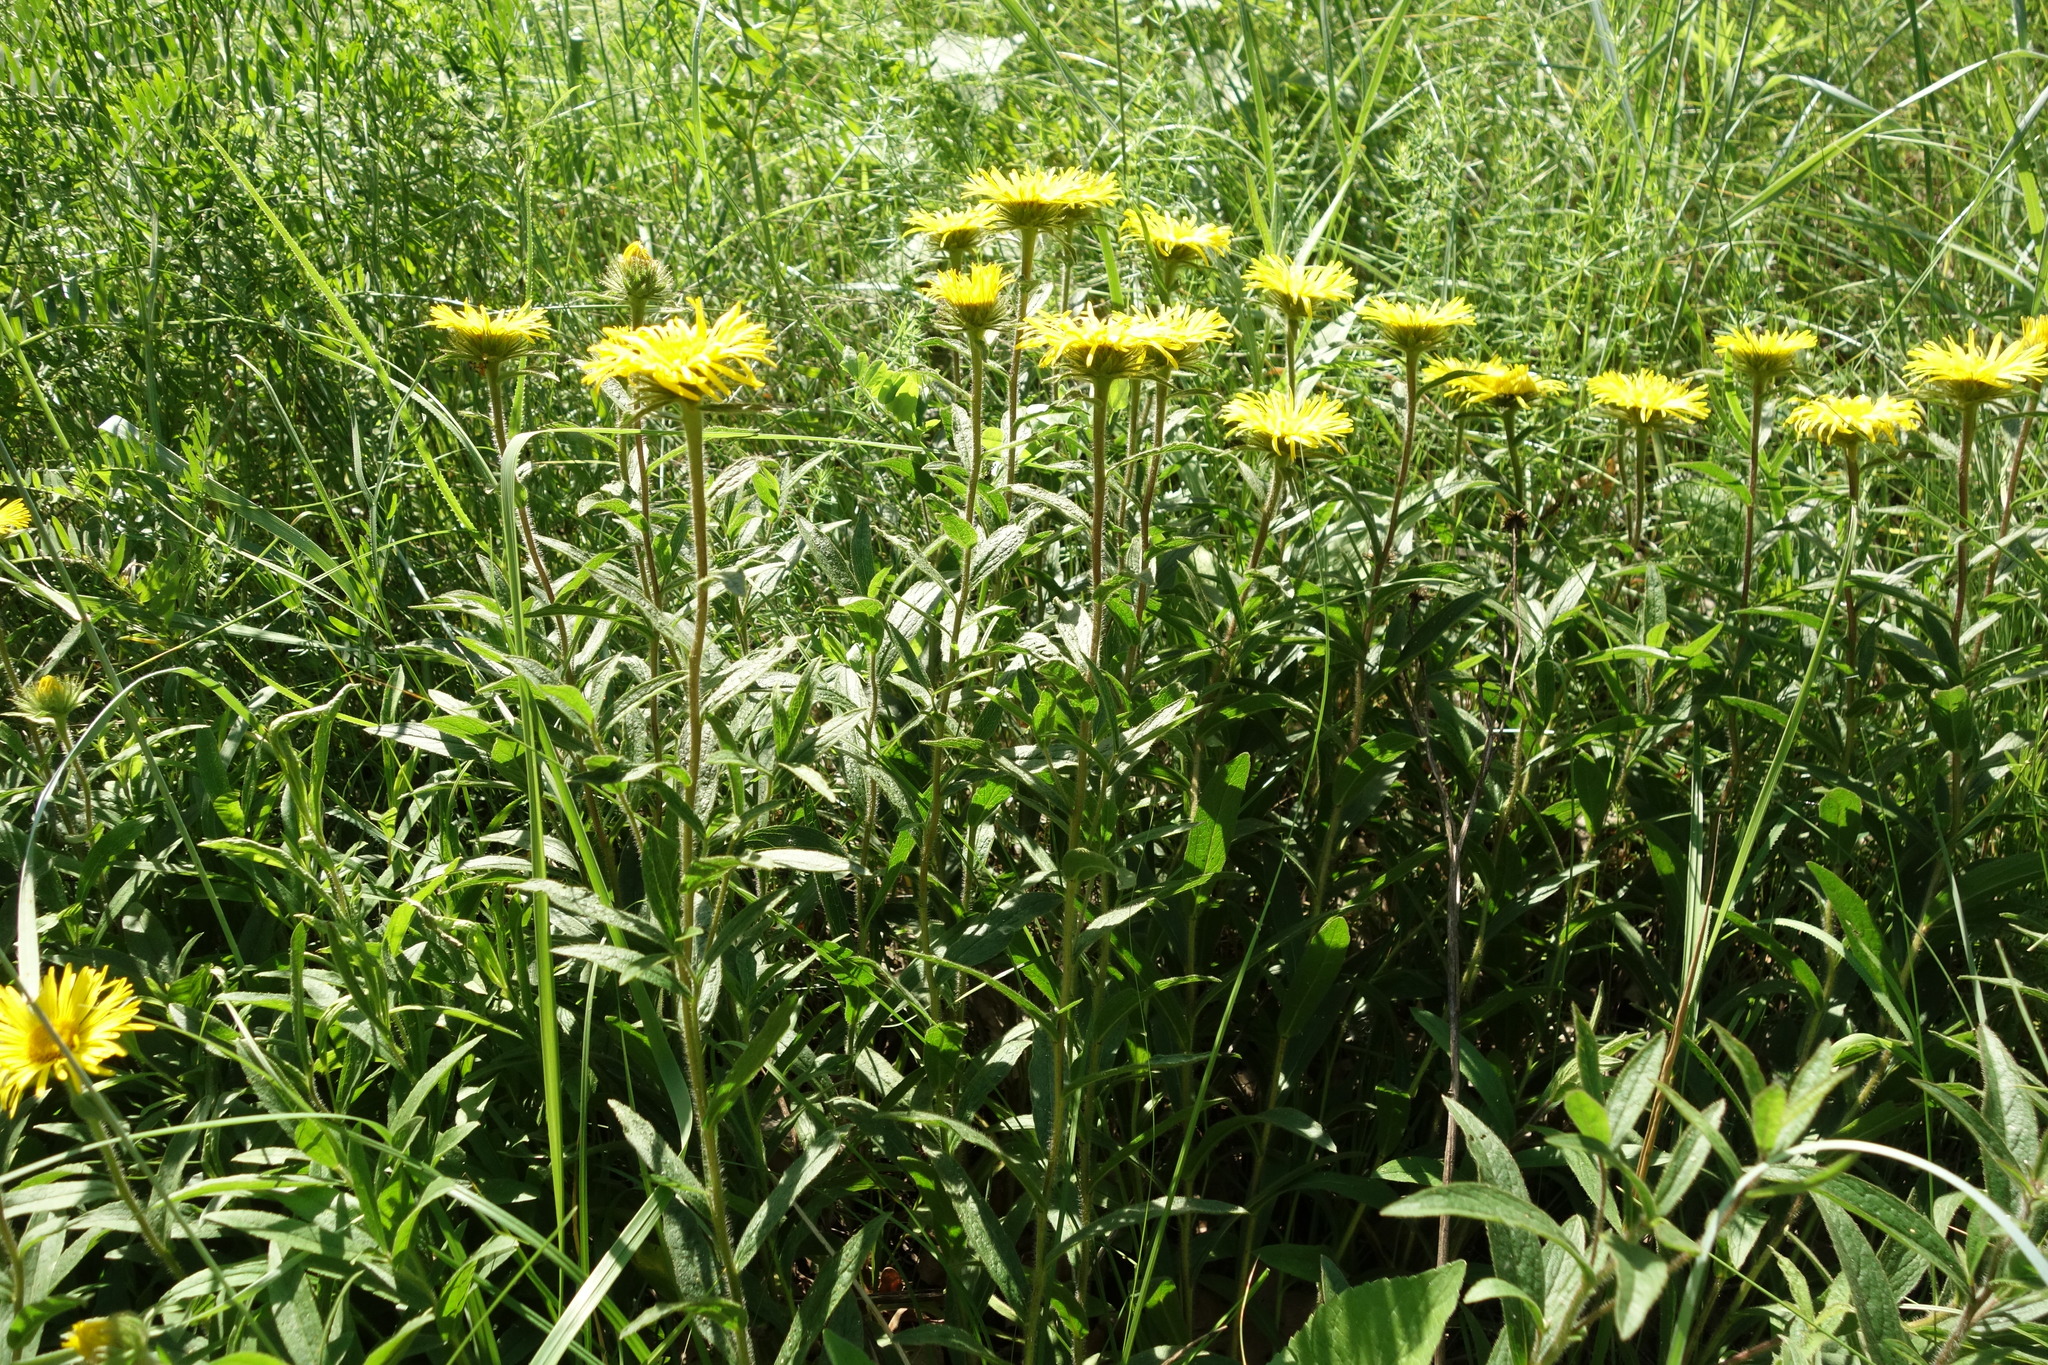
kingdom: Plantae
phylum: Tracheophyta
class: Magnoliopsida
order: Asterales
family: Asteraceae
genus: Pentanema
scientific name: Pentanema hirtum
